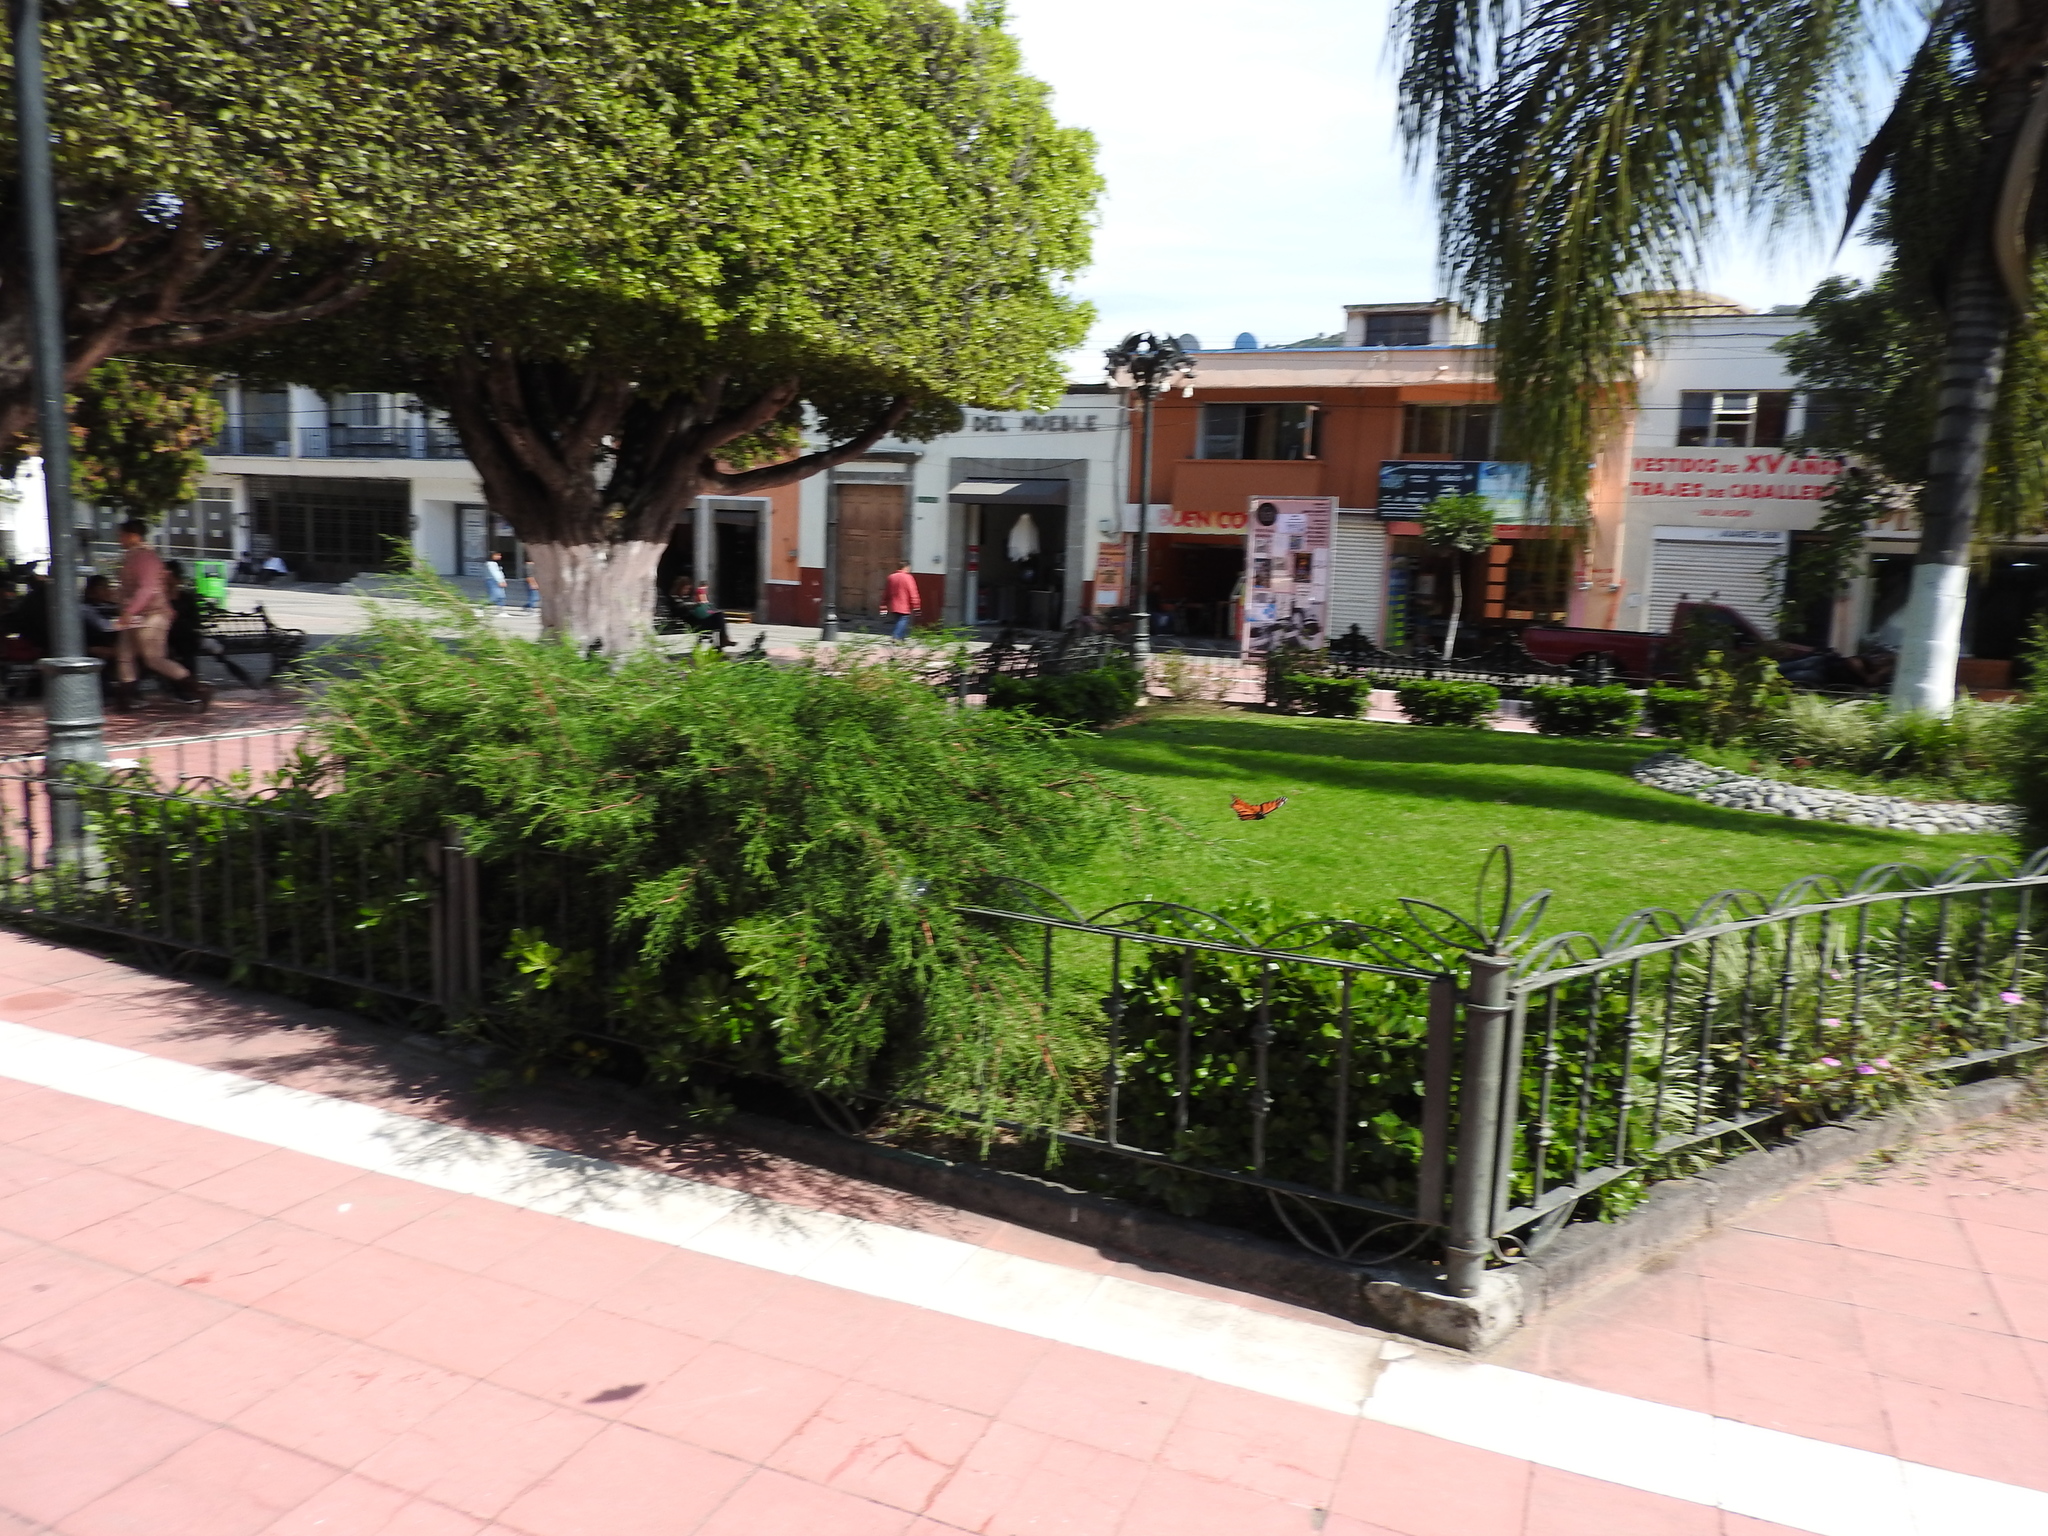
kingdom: Animalia
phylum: Arthropoda
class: Insecta
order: Lepidoptera
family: Nymphalidae
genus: Danaus
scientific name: Danaus plexippus
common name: Monarch
